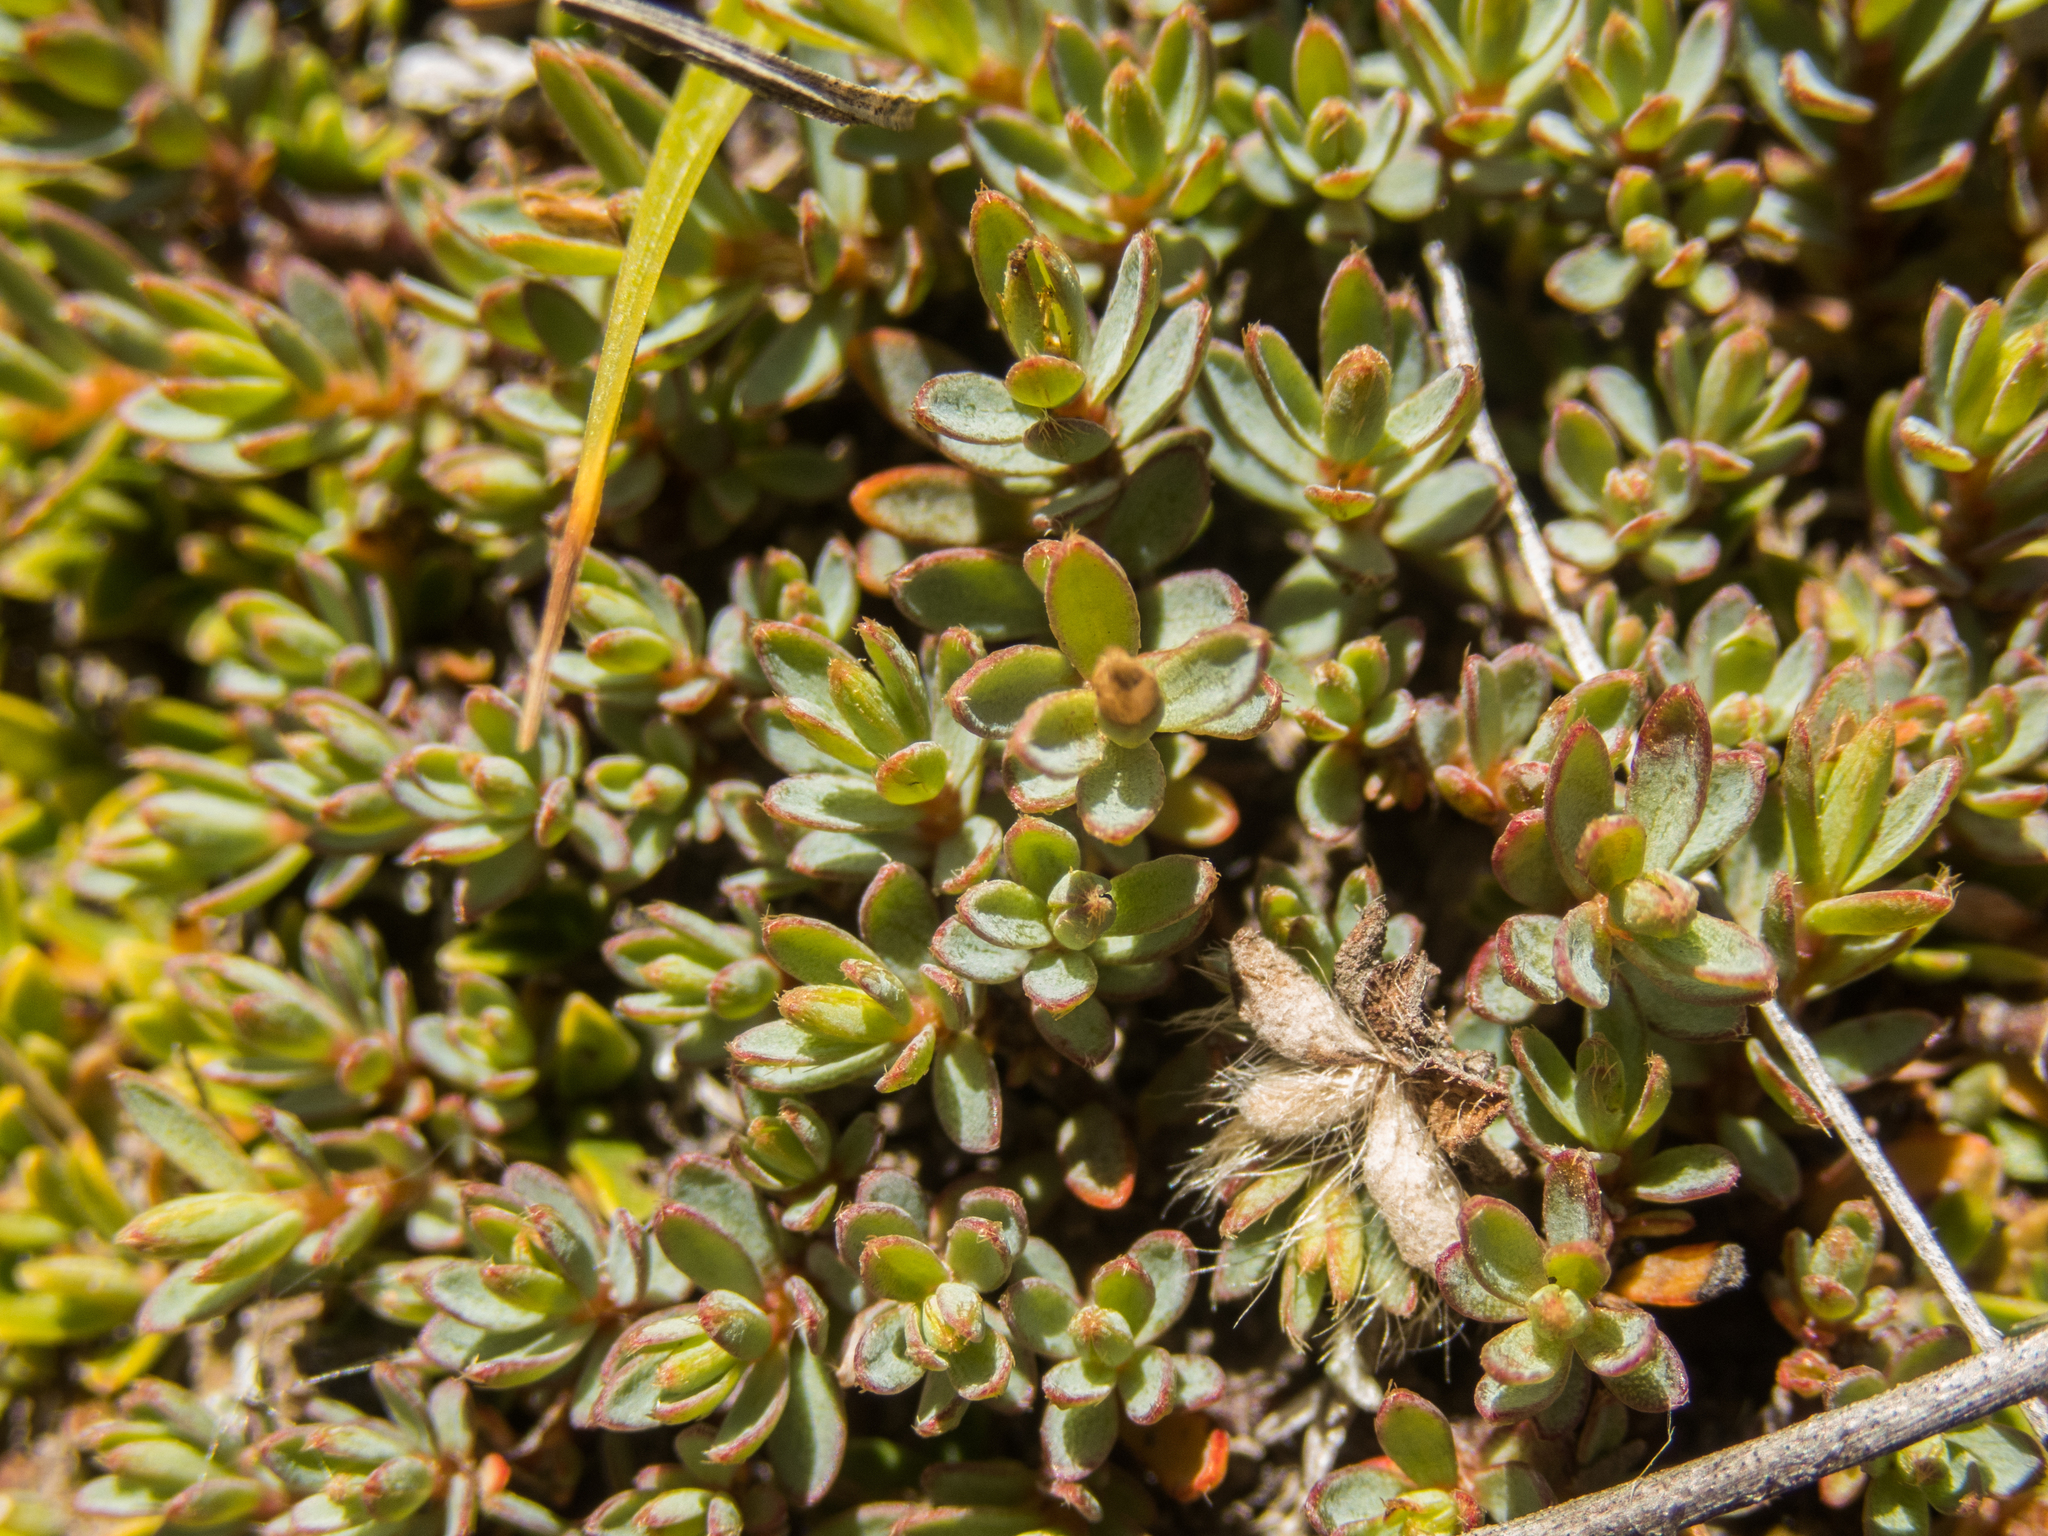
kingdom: Plantae
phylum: Tracheophyta
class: Magnoliopsida
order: Malvales
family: Thymelaeaceae
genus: Pimelea
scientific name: Pimelea oreophila
